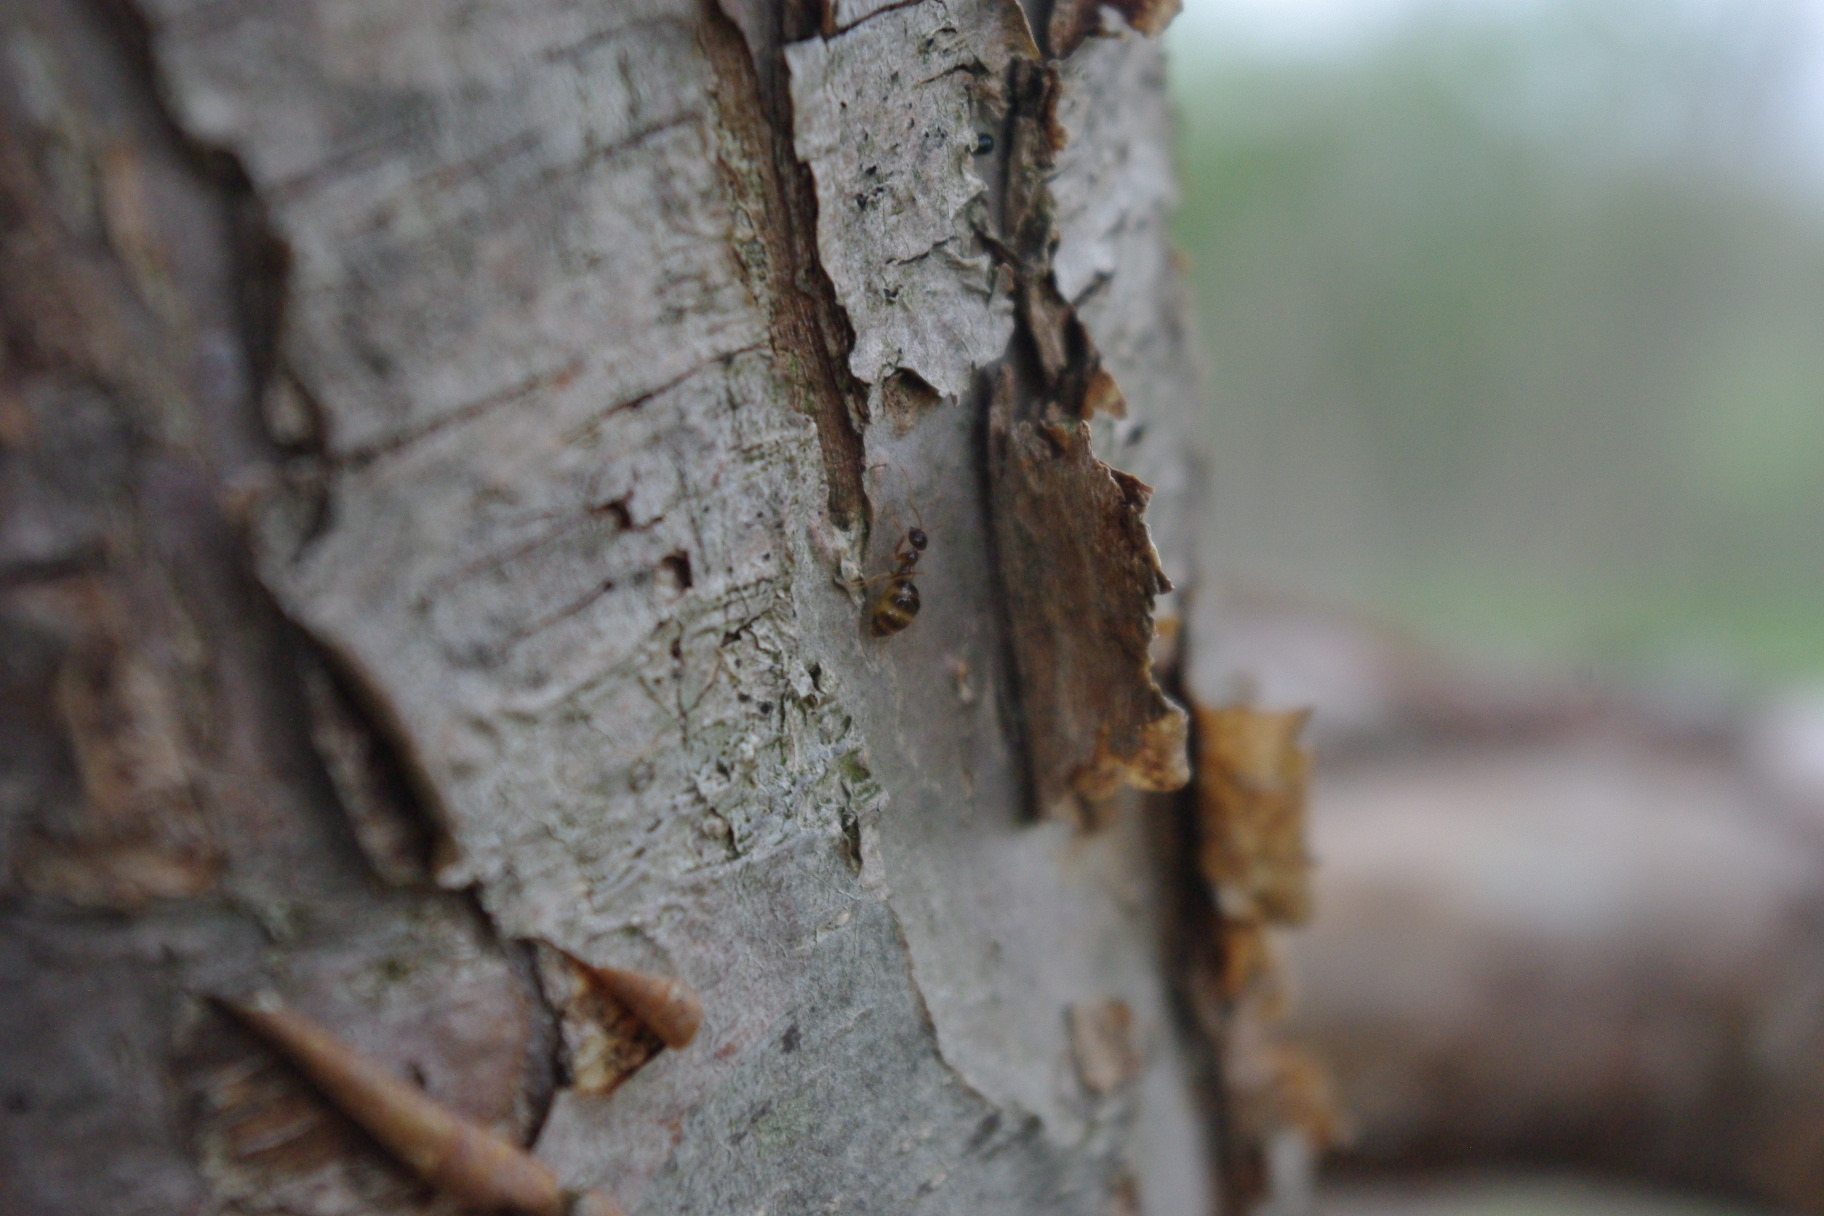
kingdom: Animalia
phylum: Arthropoda
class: Insecta
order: Hymenoptera
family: Formicidae
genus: Prenolepis
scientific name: Prenolepis imparis
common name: Small honey ant
